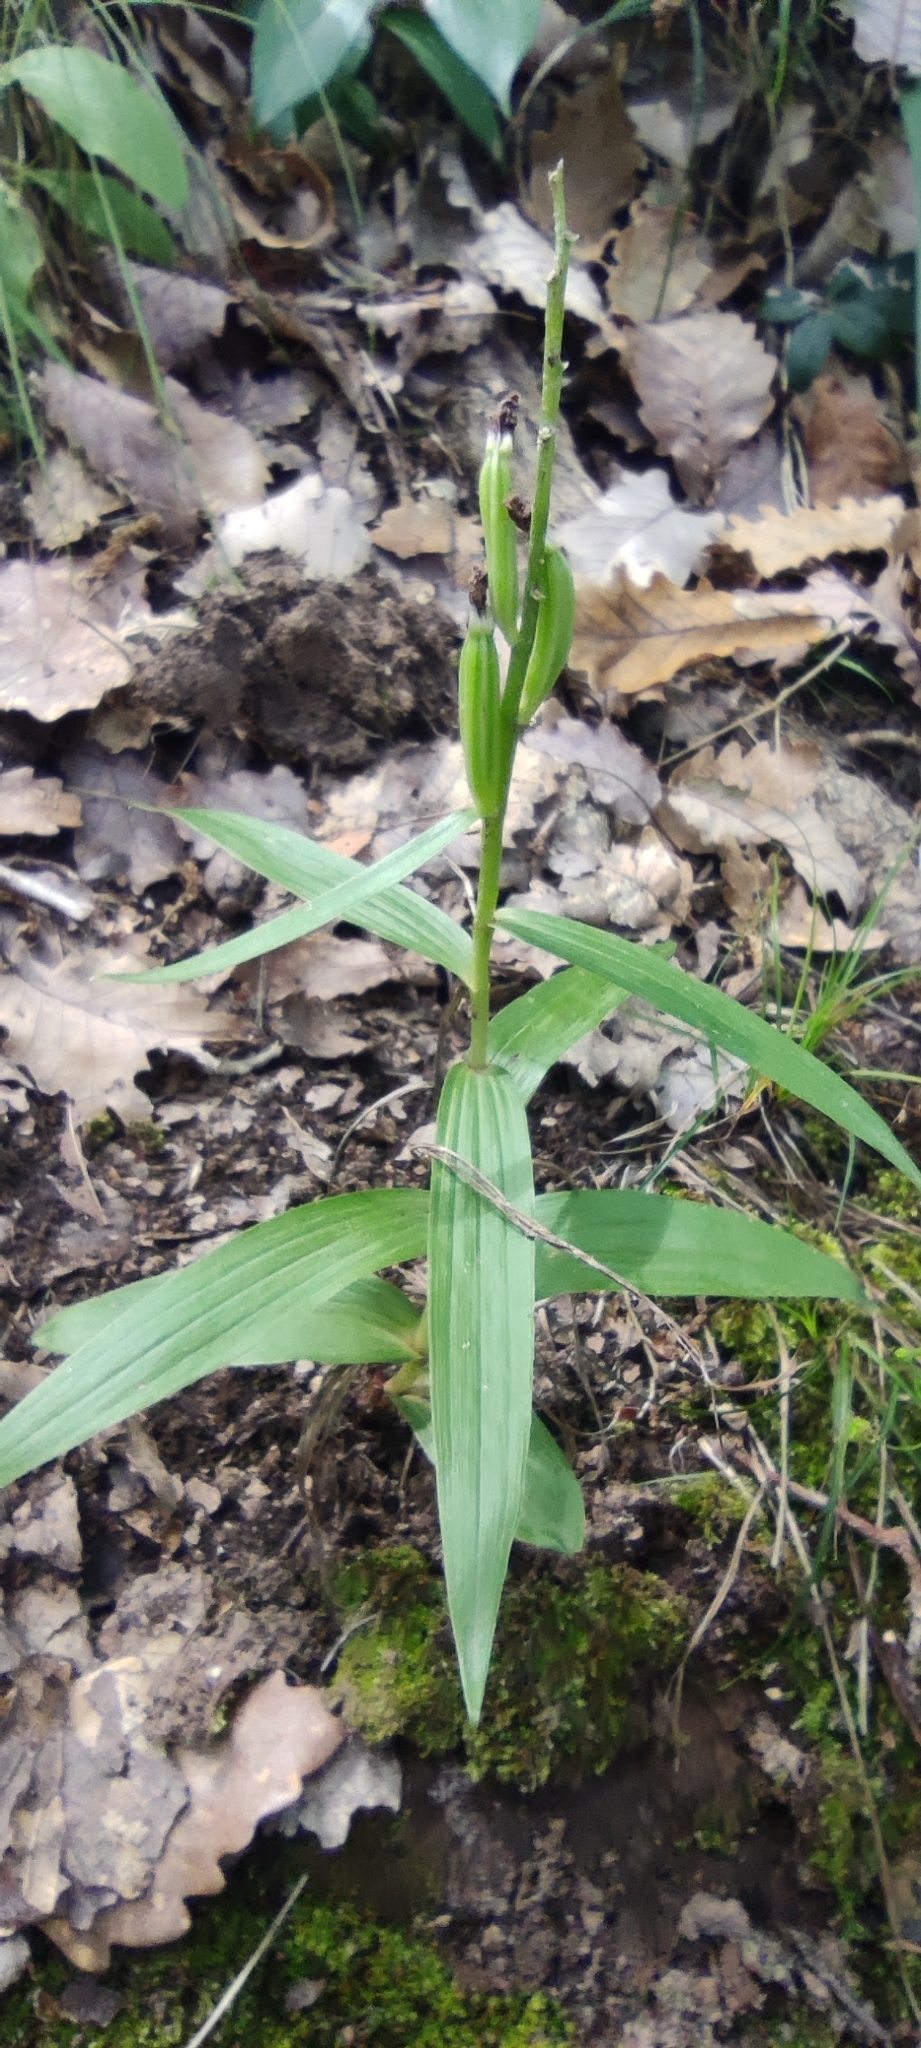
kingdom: Plantae
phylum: Tracheophyta
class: Liliopsida
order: Asparagales
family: Orchidaceae
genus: Cephalanthera
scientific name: Cephalanthera longifolia
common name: Narrow-leaved helleborine
